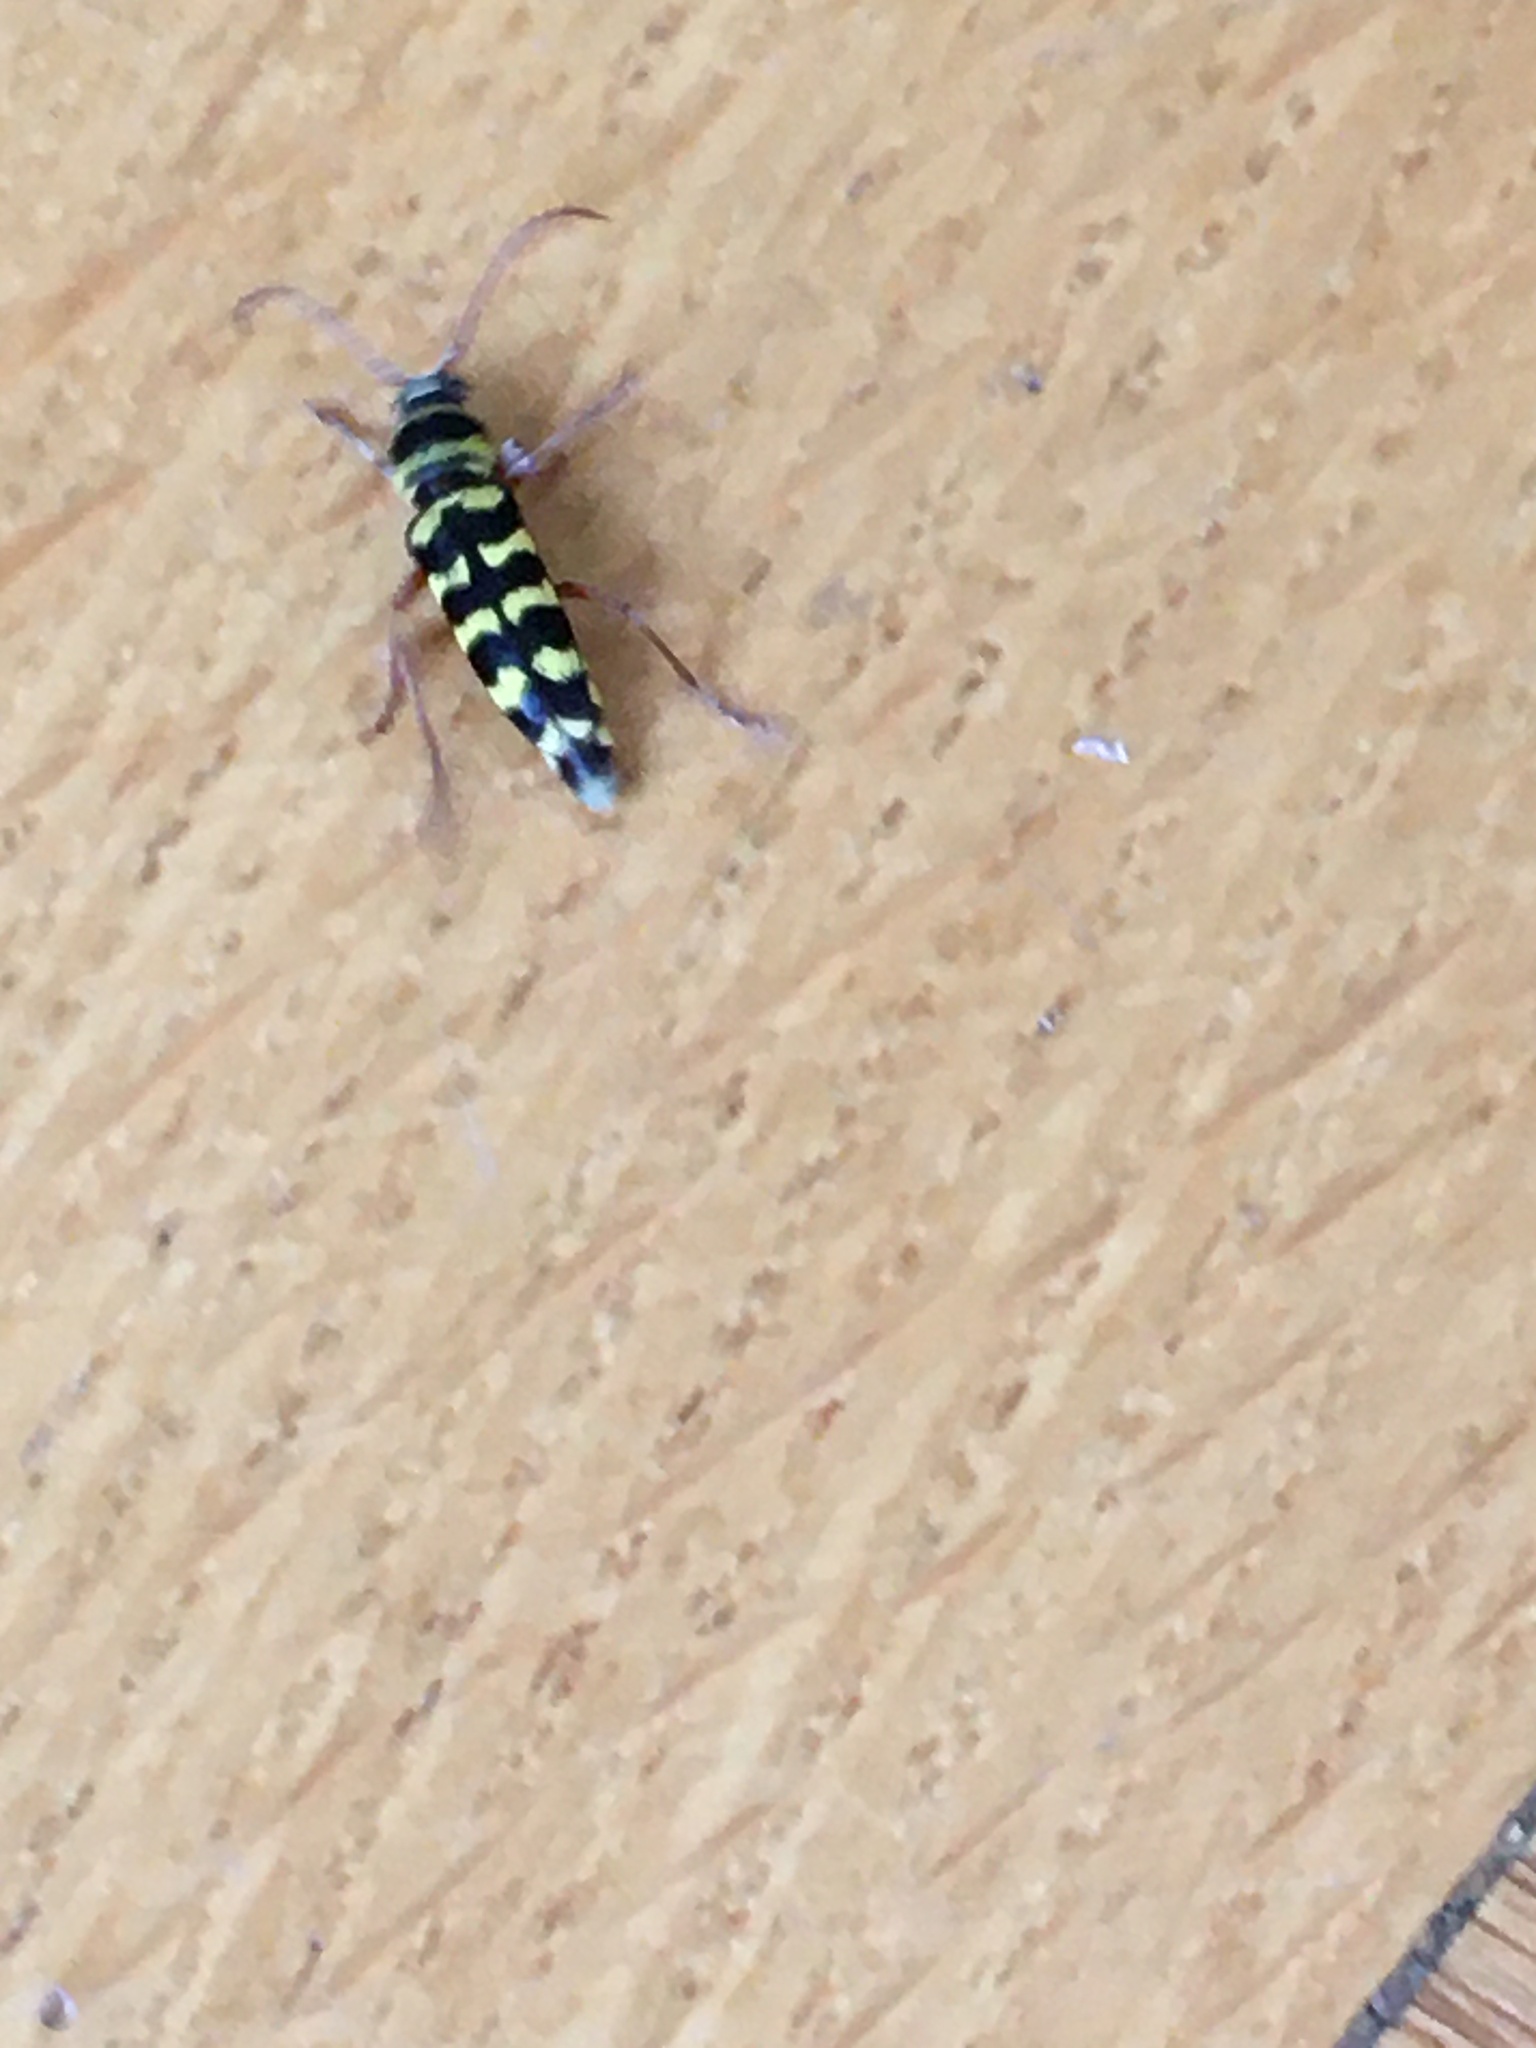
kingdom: Animalia
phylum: Arthropoda
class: Insecta
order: Coleoptera
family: Cerambycidae
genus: Plagionotus
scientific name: Plagionotus floralis
